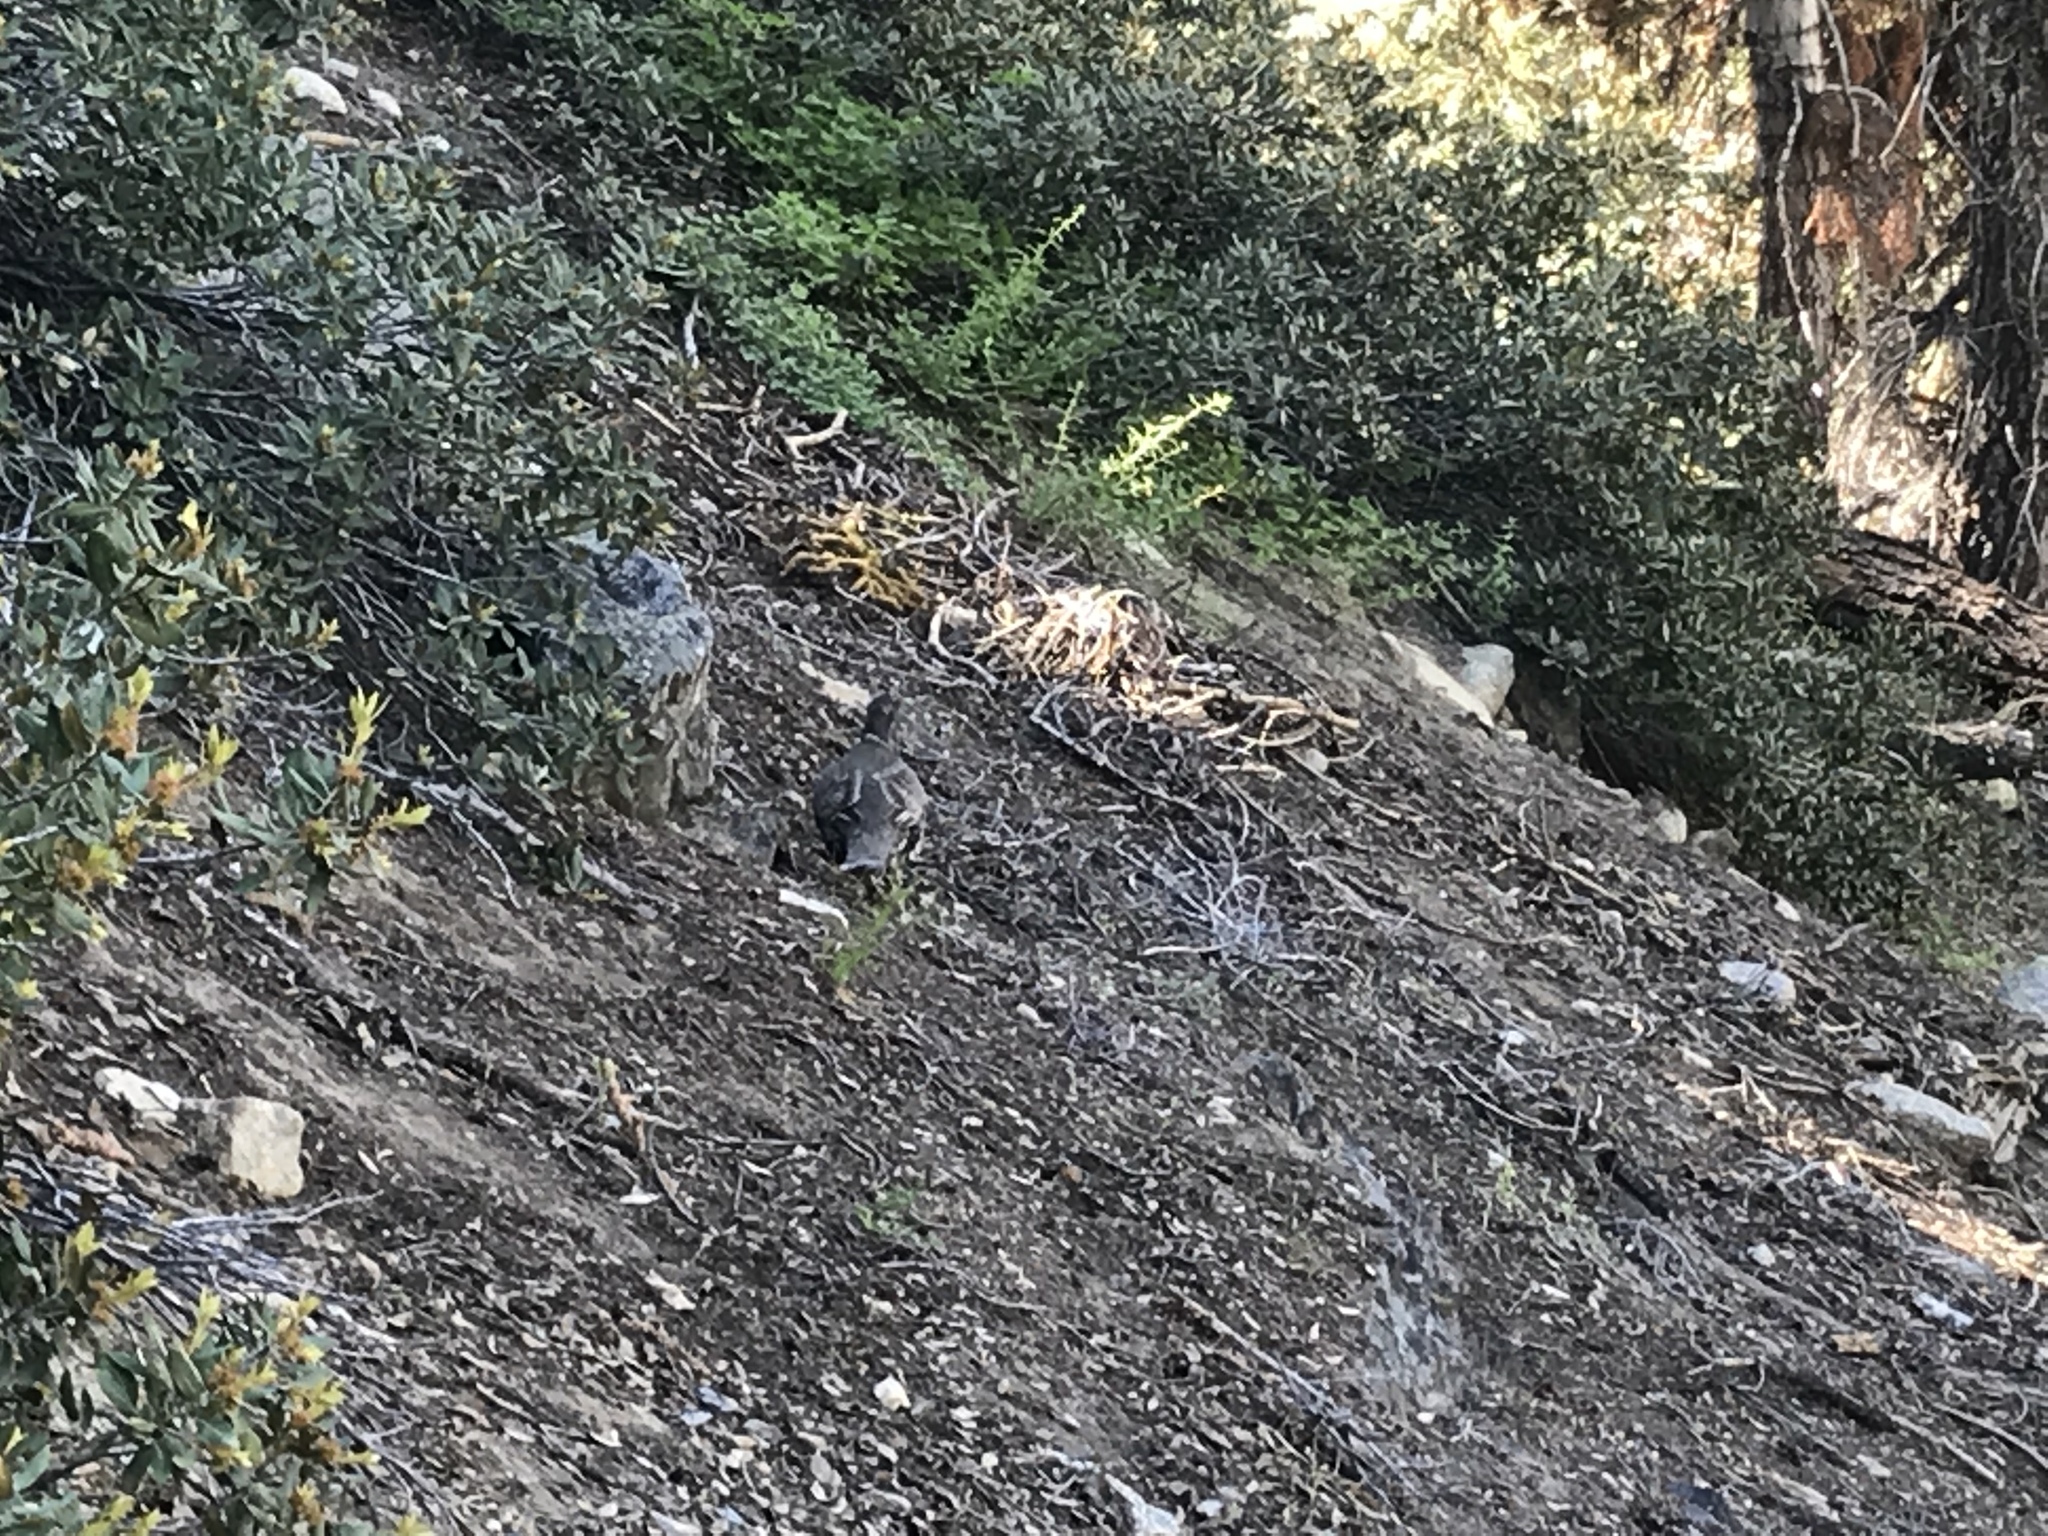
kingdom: Animalia
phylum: Chordata
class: Aves
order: Galliformes
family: Phasianidae
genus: Dendragapus
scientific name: Dendragapus fuliginosus
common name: Sooty grouse
